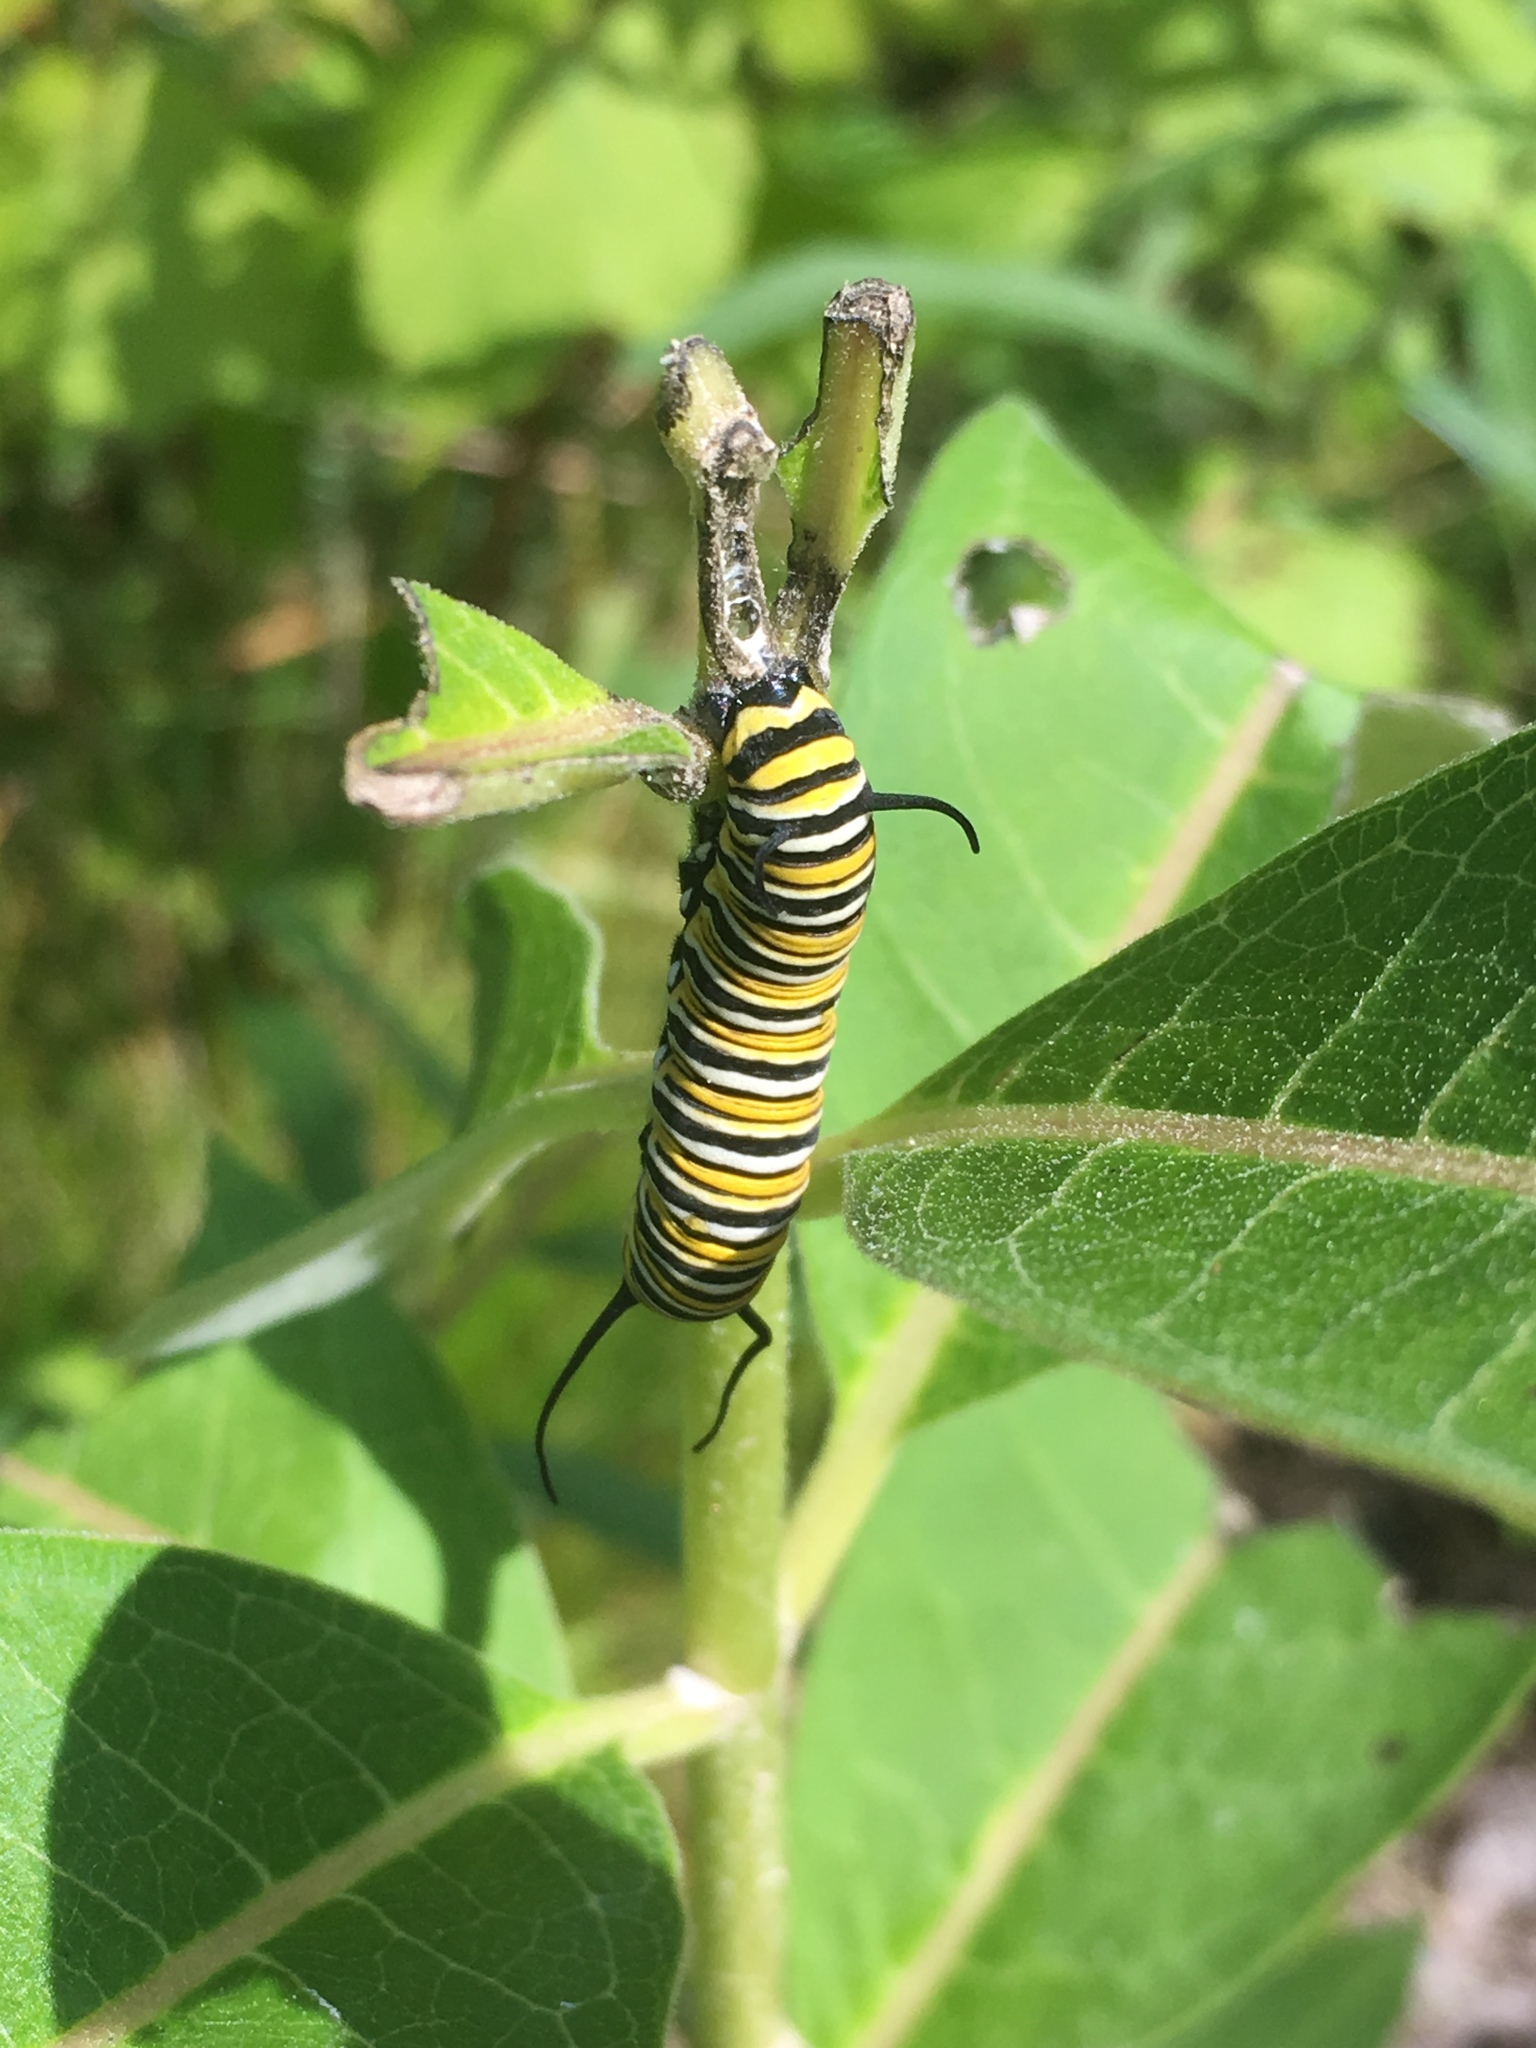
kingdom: Animalia
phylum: Arthropoda
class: Insecta
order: Lepidoptera
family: Nymphalidae
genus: Danaus
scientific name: Danaus plexippus
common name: Monarch
